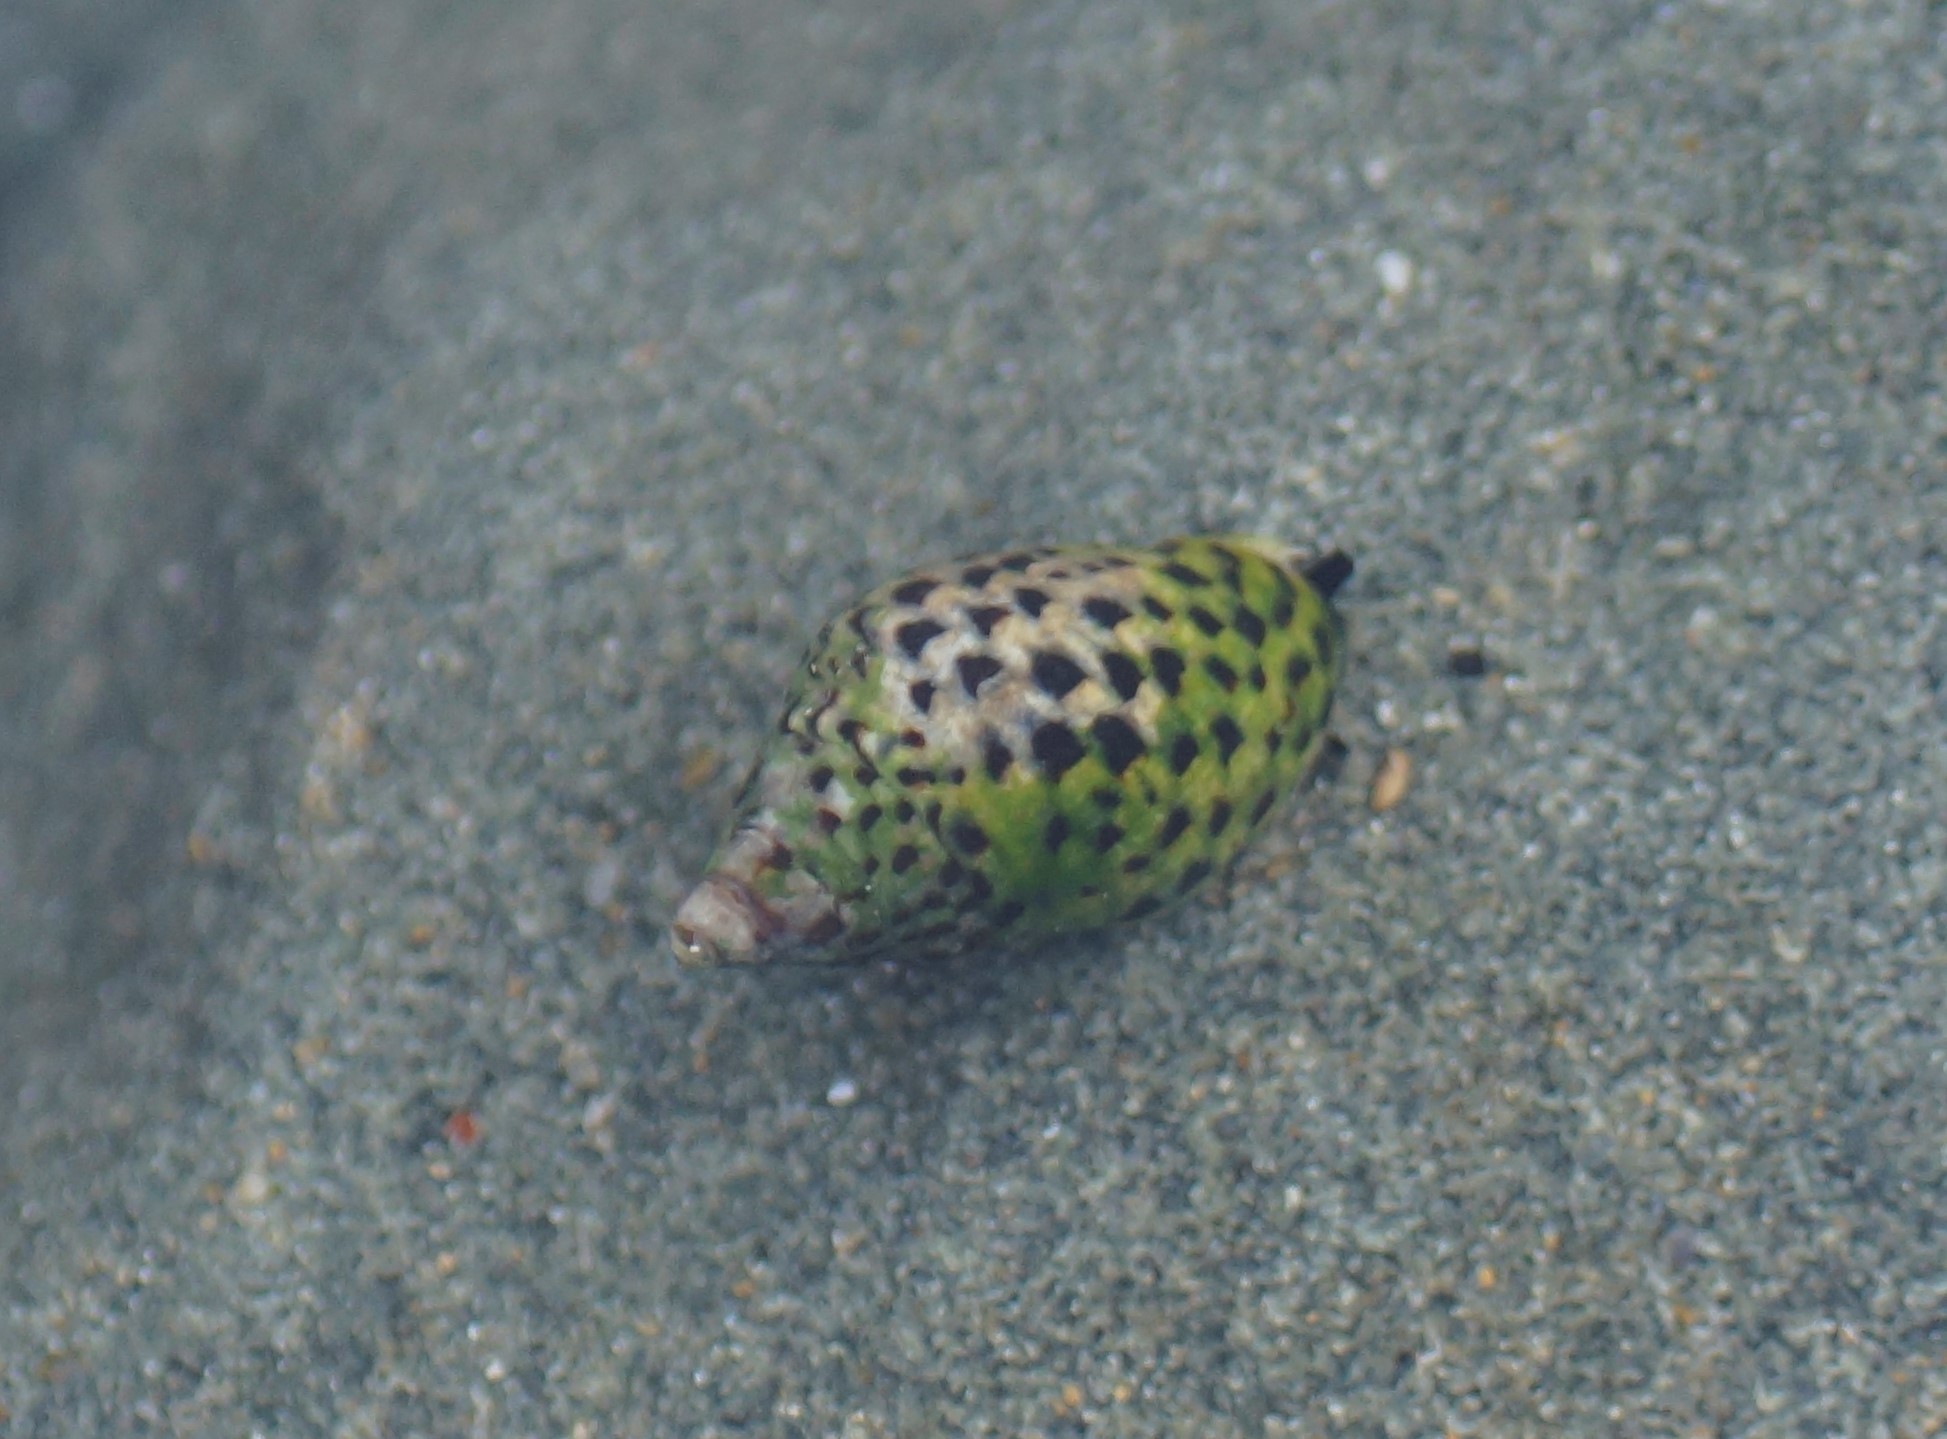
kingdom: Animalia
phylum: Mollusca
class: Gastropoda
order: Neogastropoda
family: Cominellidae
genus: Cominella
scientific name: Cominella lineolata
